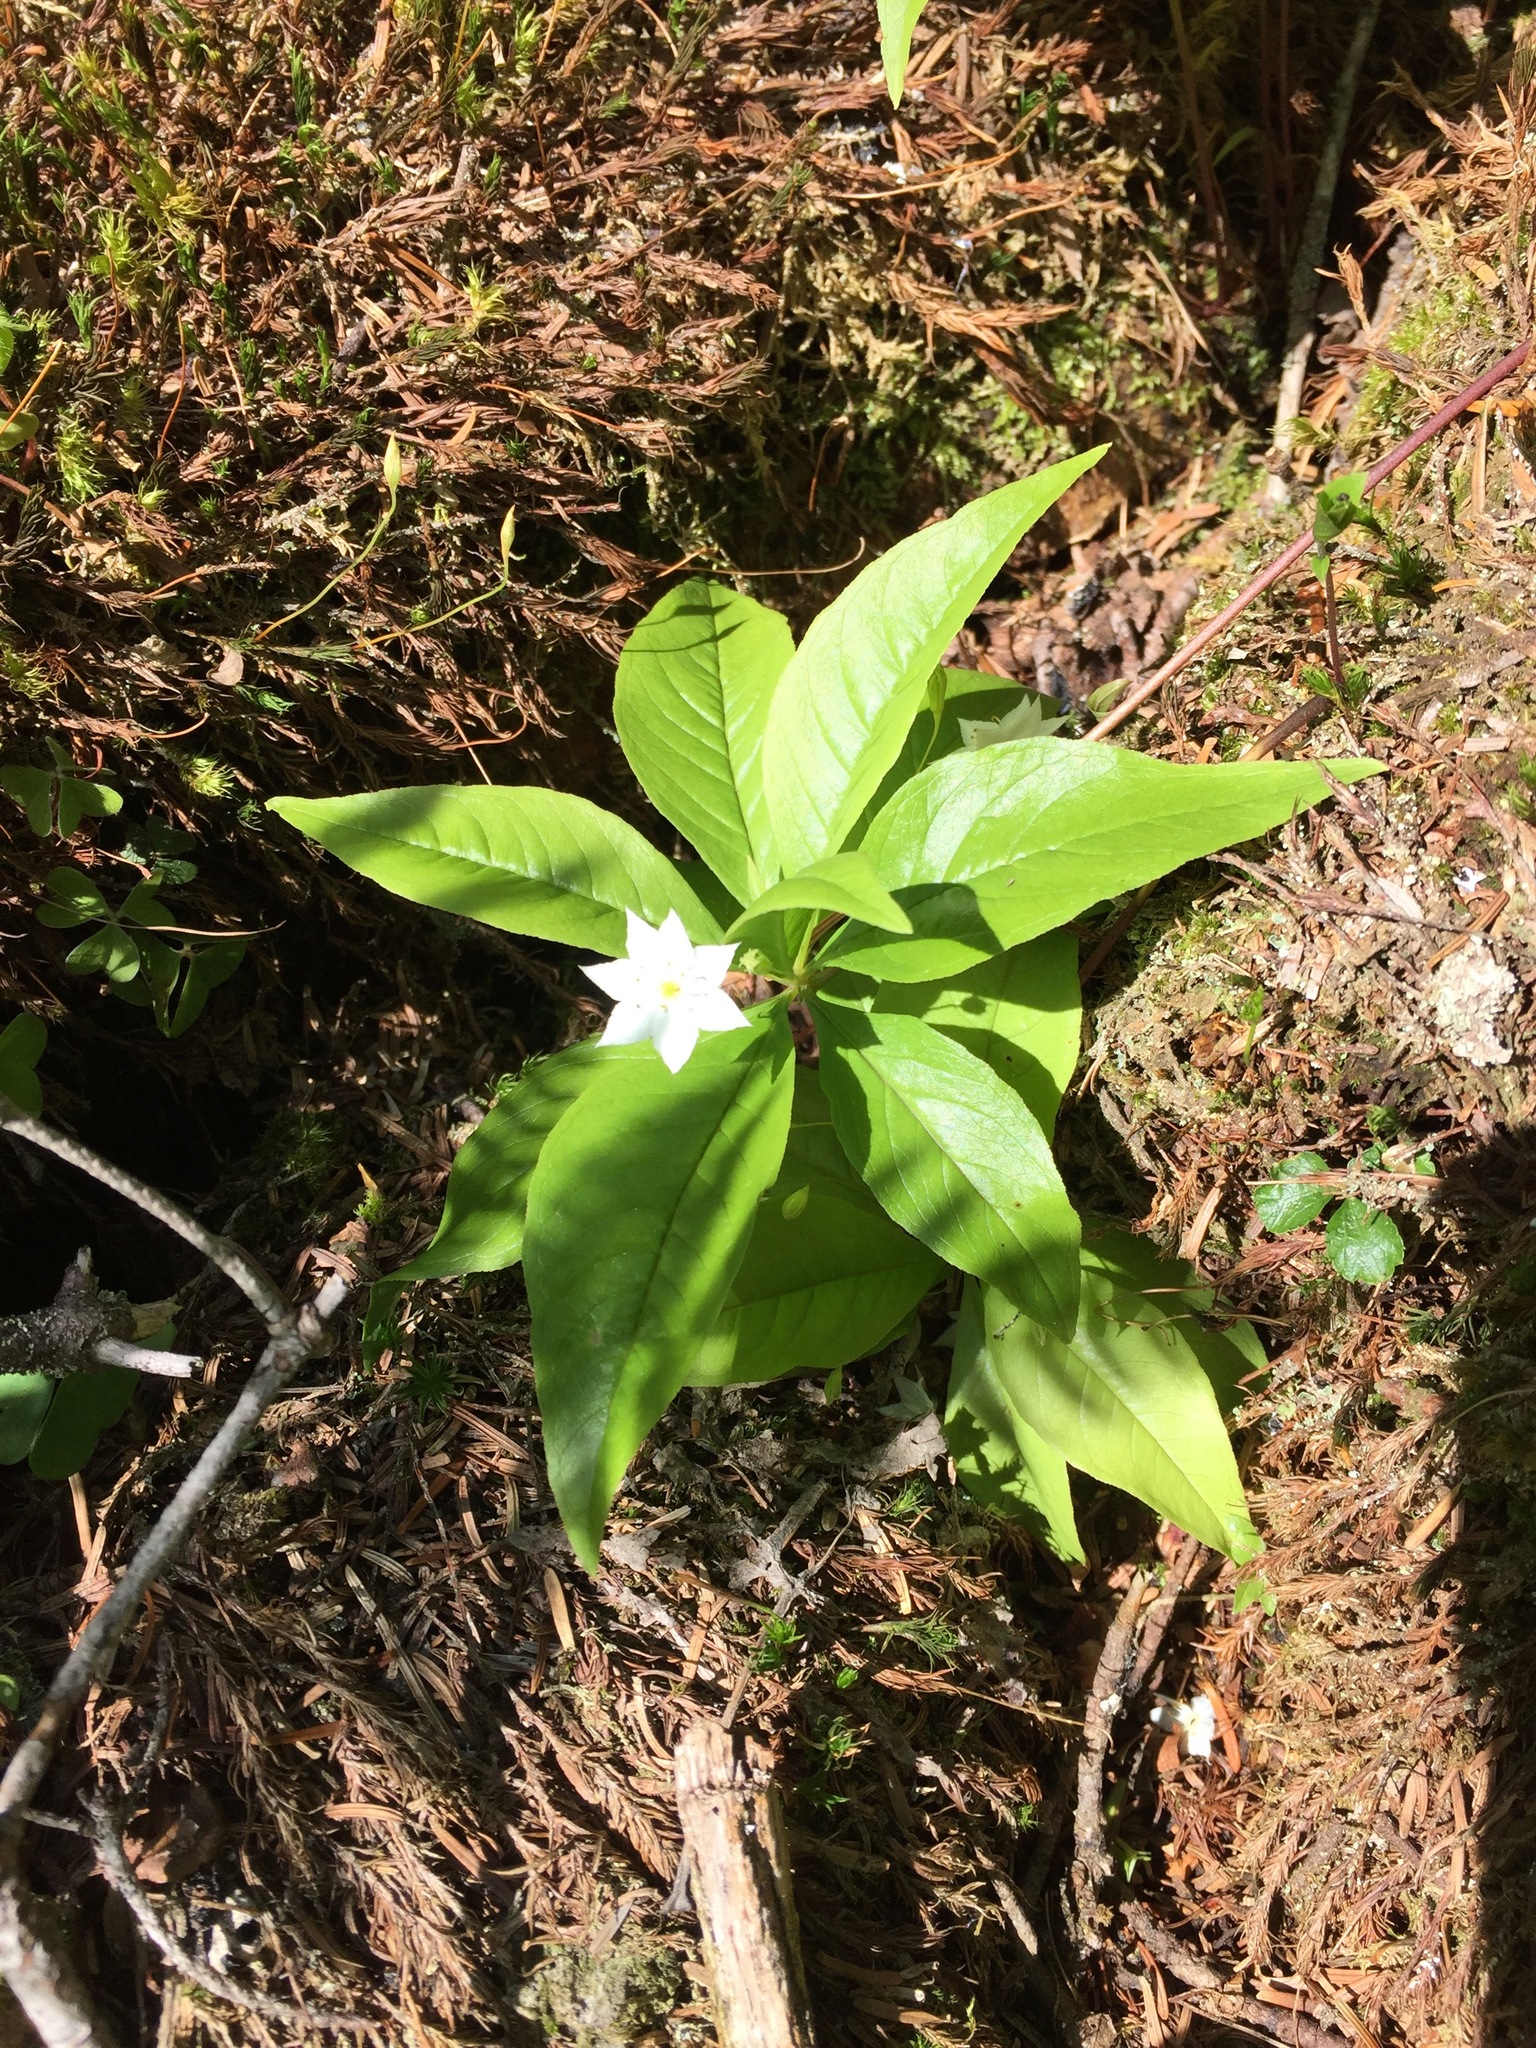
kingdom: Plantae
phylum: Tracheophyta
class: Magnoliopsida
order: Ericales
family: Primulaceae
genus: Lysimachia
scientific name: Lysimachia borealis
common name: American starflower
